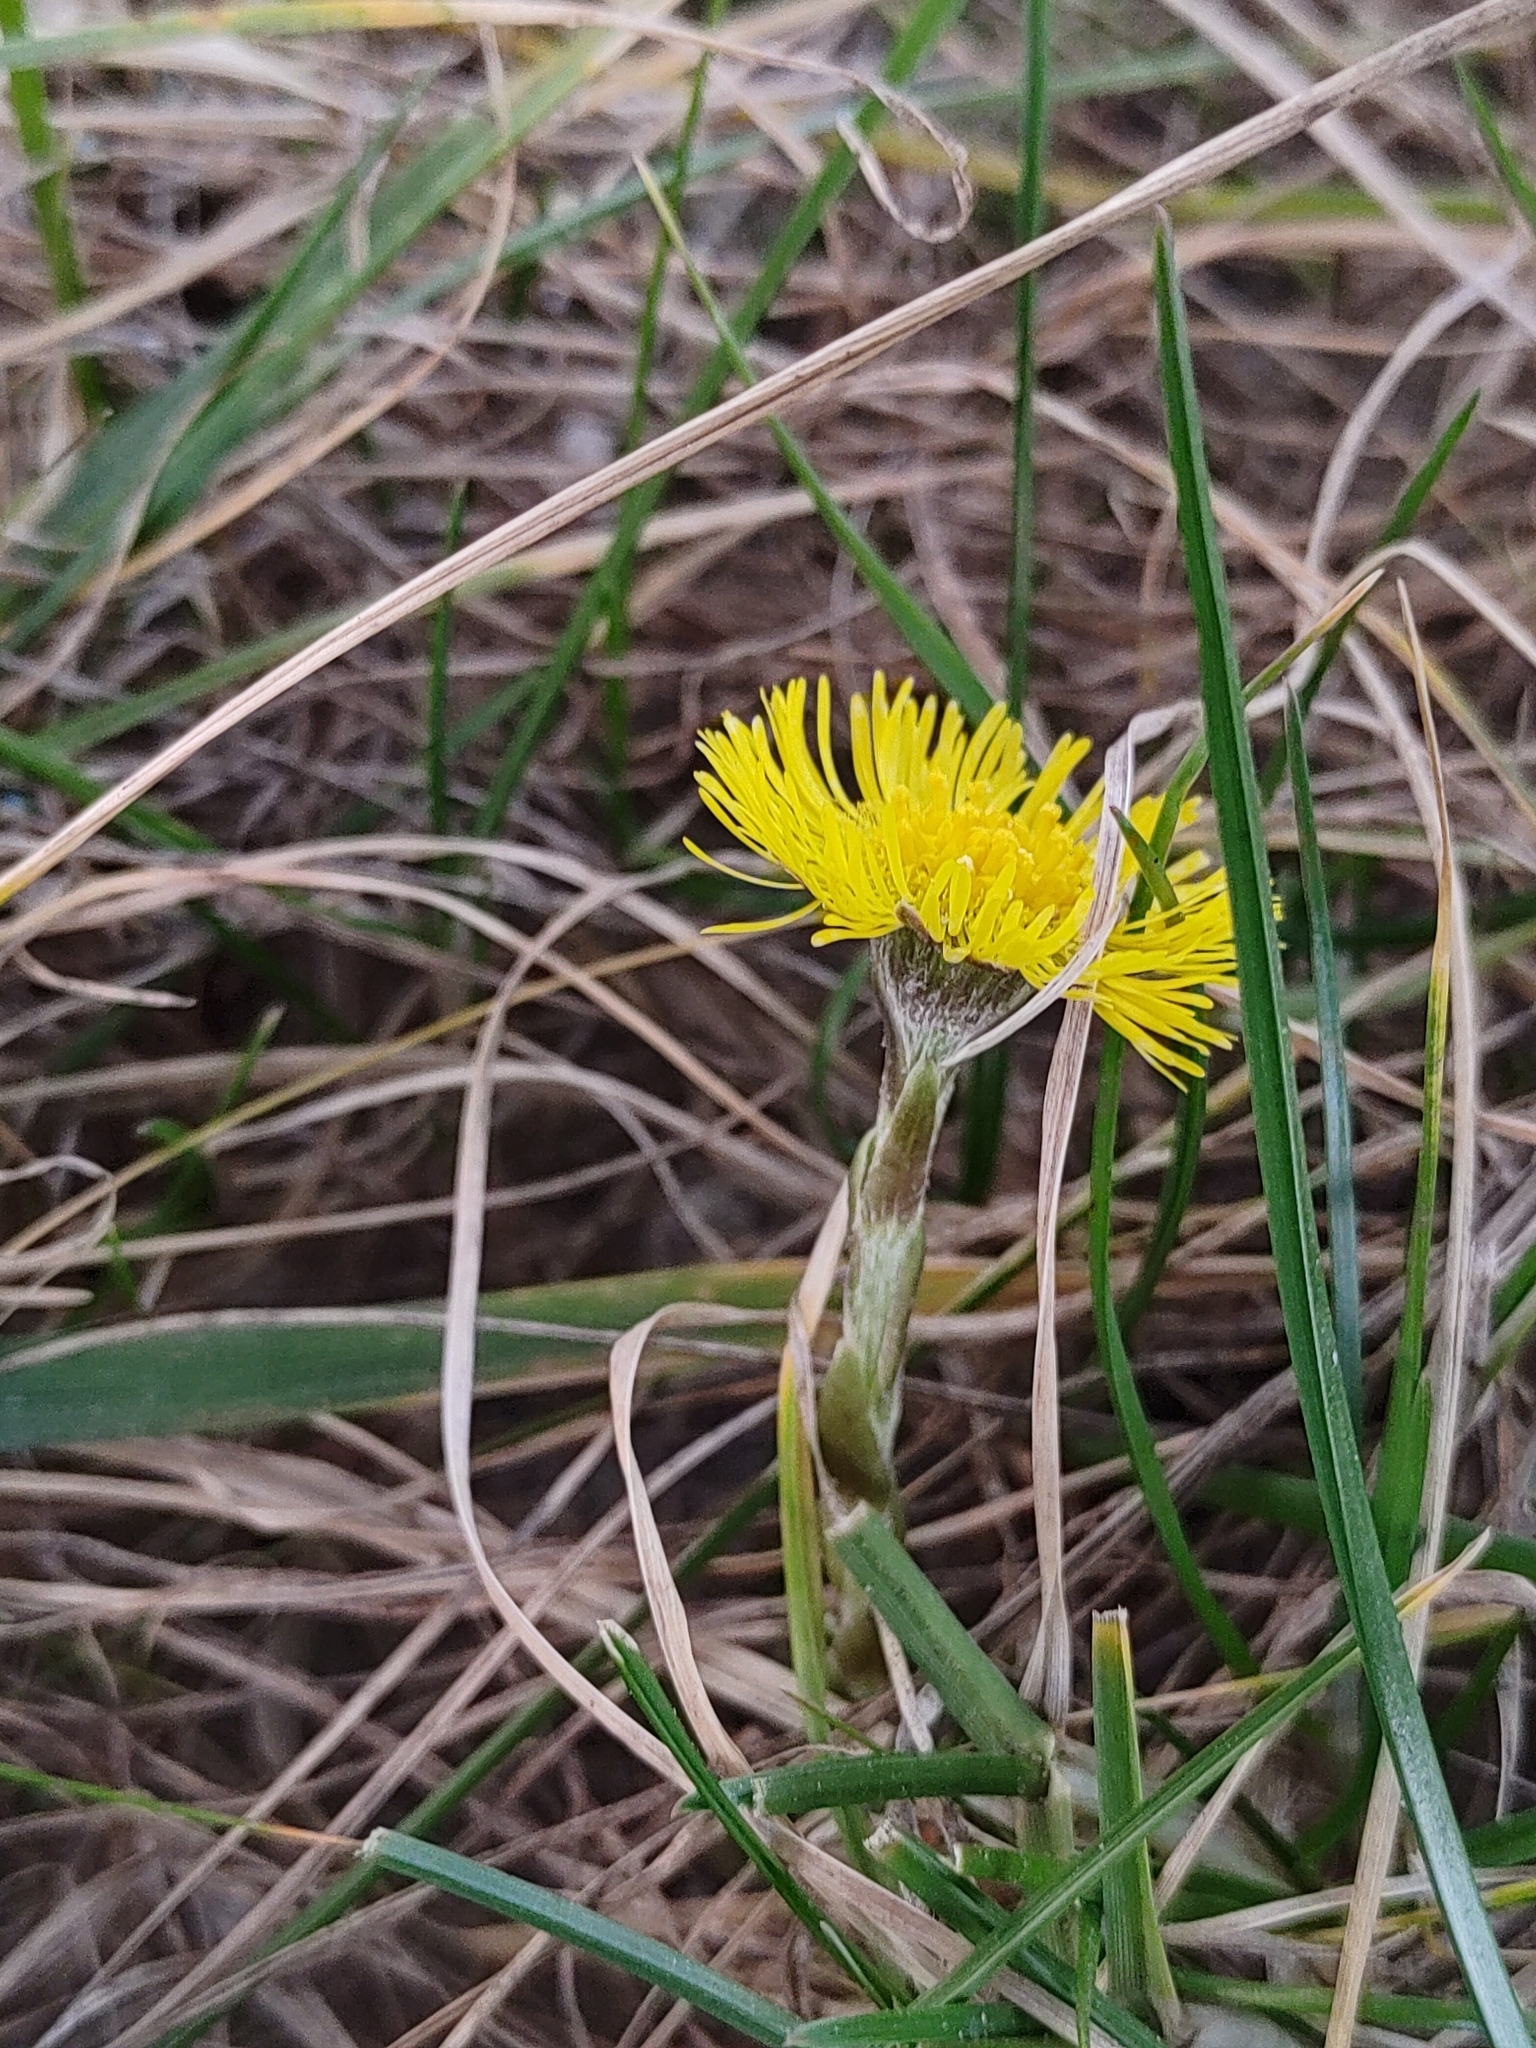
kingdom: Plantae
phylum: Tracheophyta
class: Magnoliopsida
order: Asterales
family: Asteraceae
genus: Tussilago
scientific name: Tussilago farfara
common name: Coltsfoot
